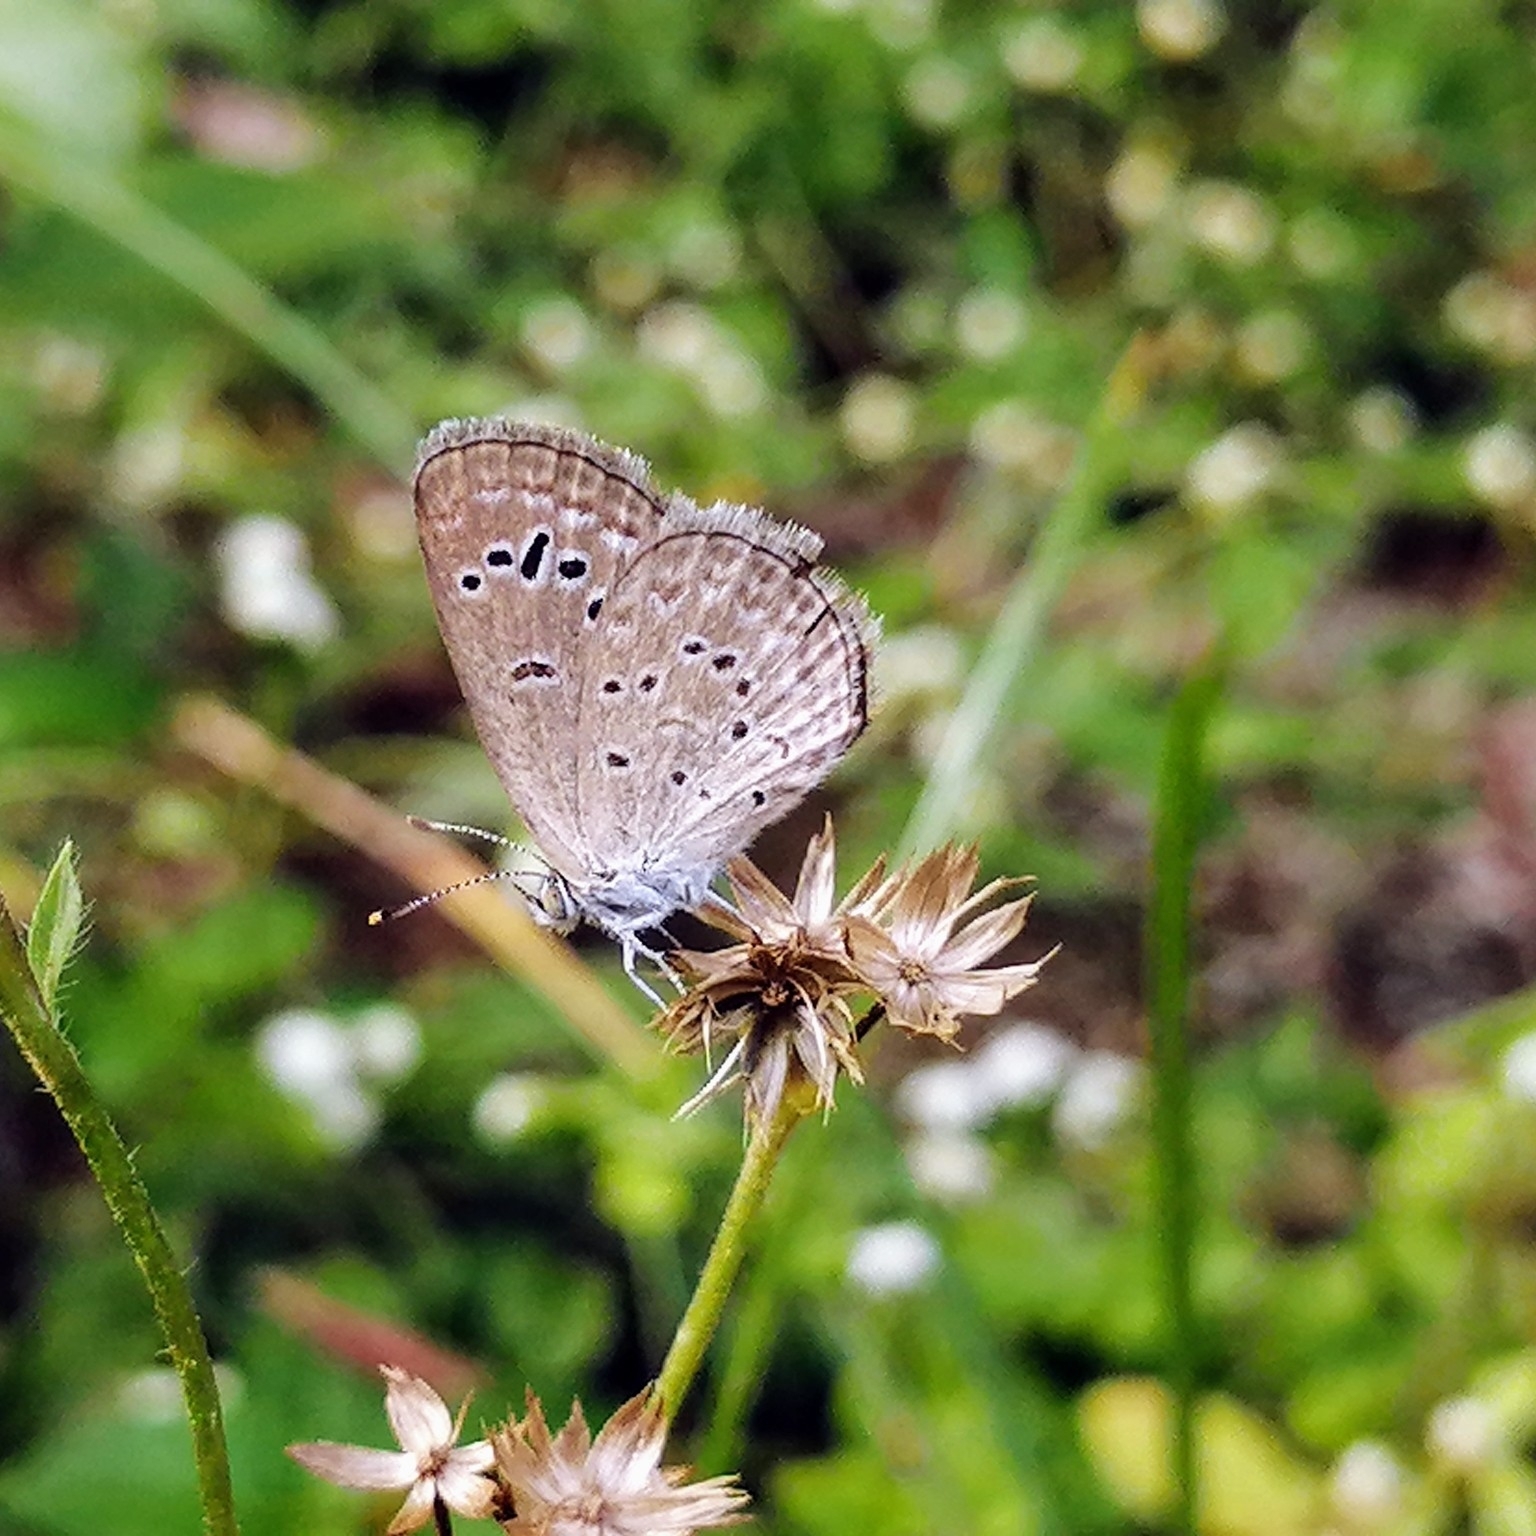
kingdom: Animalia
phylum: Arthropoda
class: Insecta
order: Lepidoptera
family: Lycaenidae
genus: Zizeeria
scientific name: Zizeeria karsandra
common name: Dark grass blue
